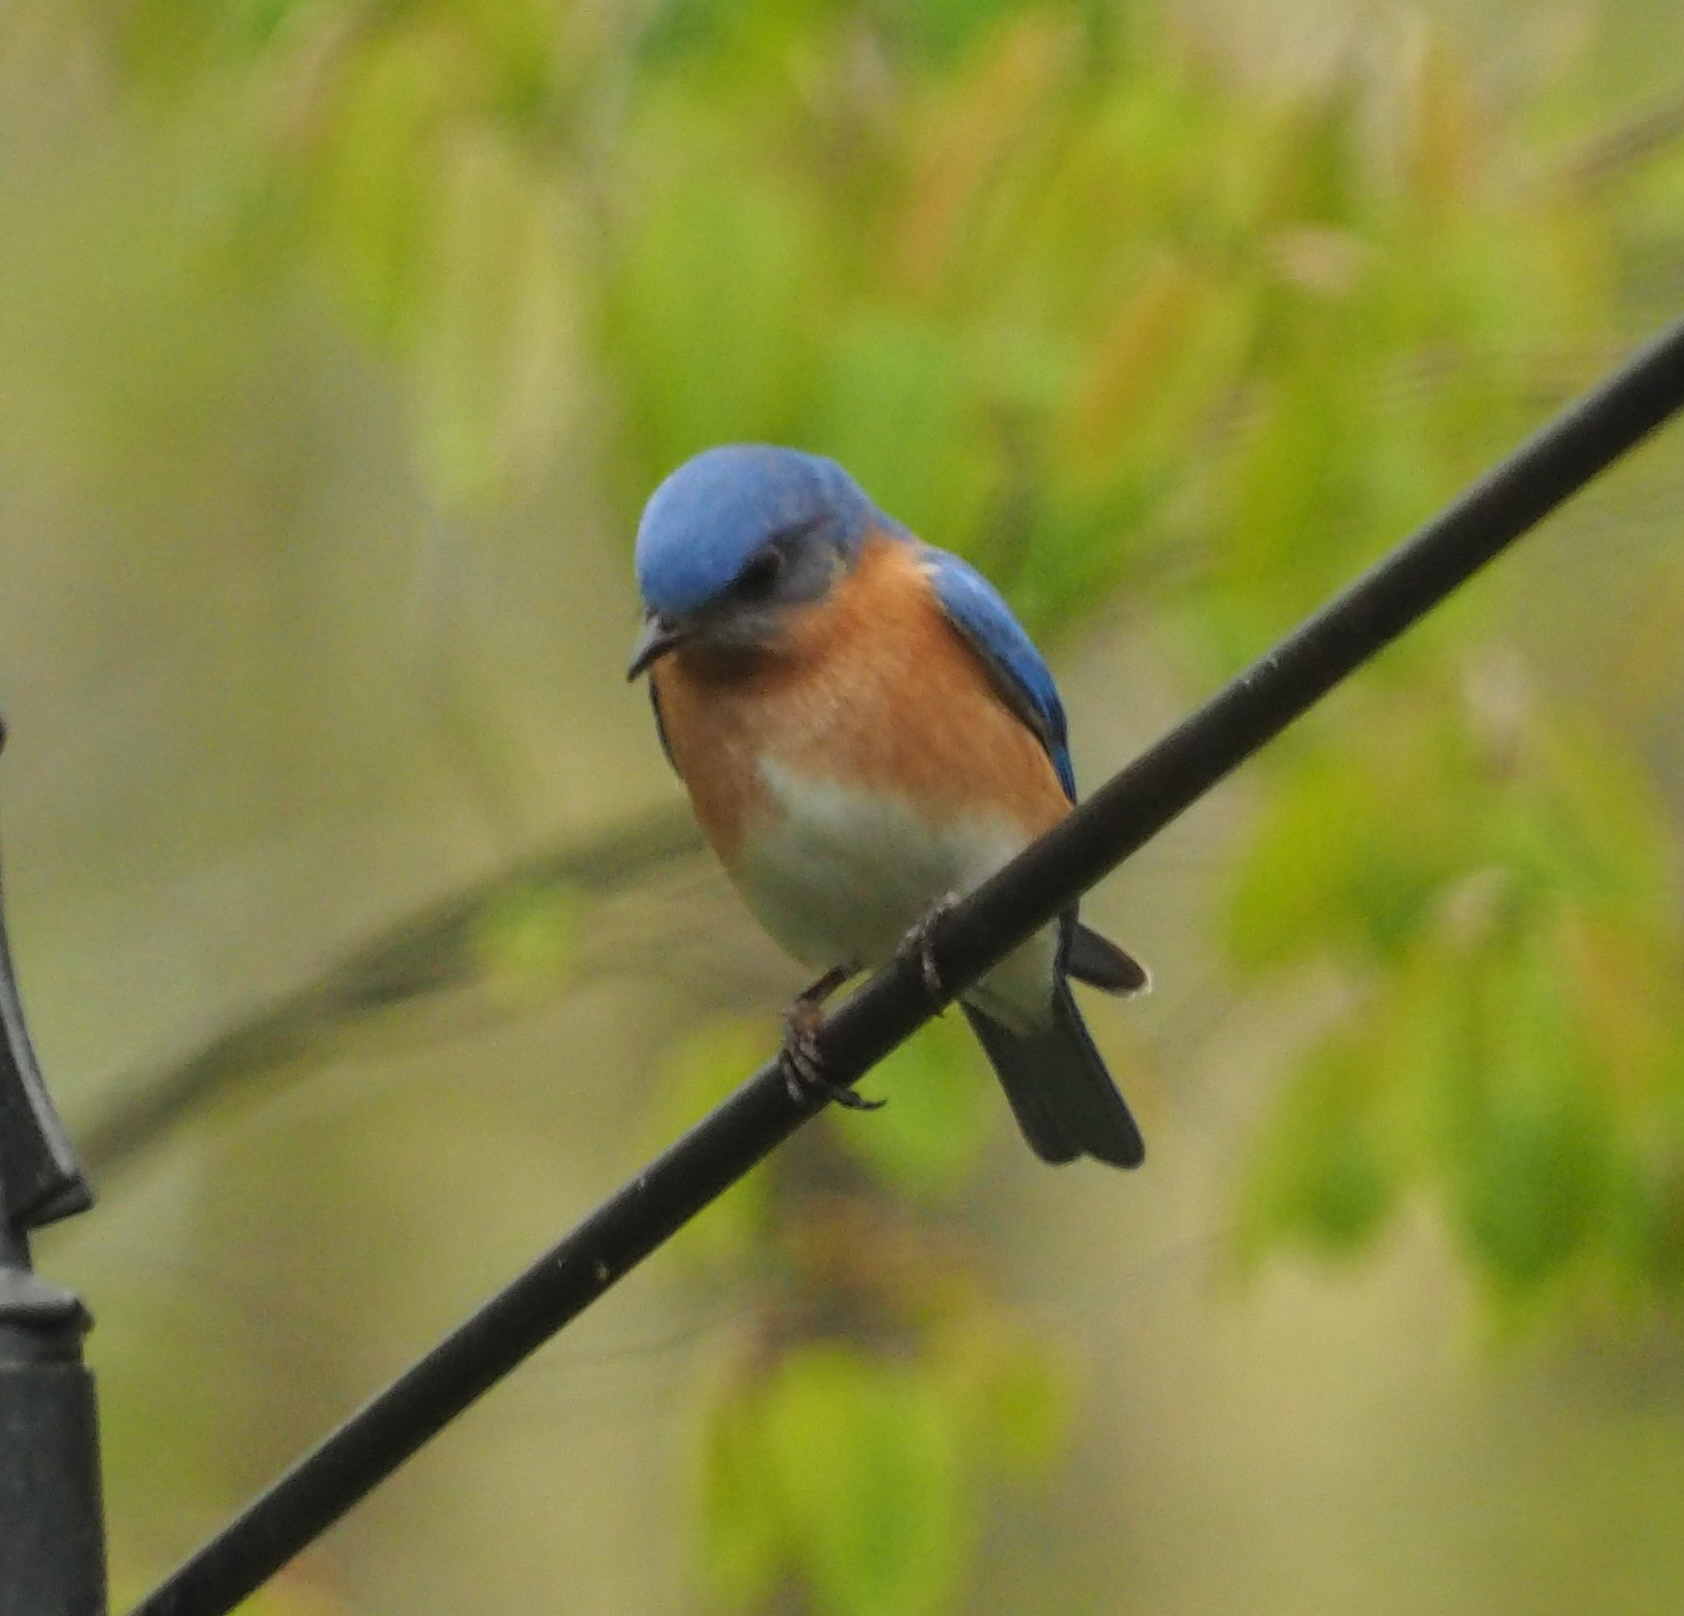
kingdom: Animalia
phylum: Chordata
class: Aves
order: Passeriformes
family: Turdidae
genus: Sialia
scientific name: Sialia sialis
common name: Eastern bluebird
